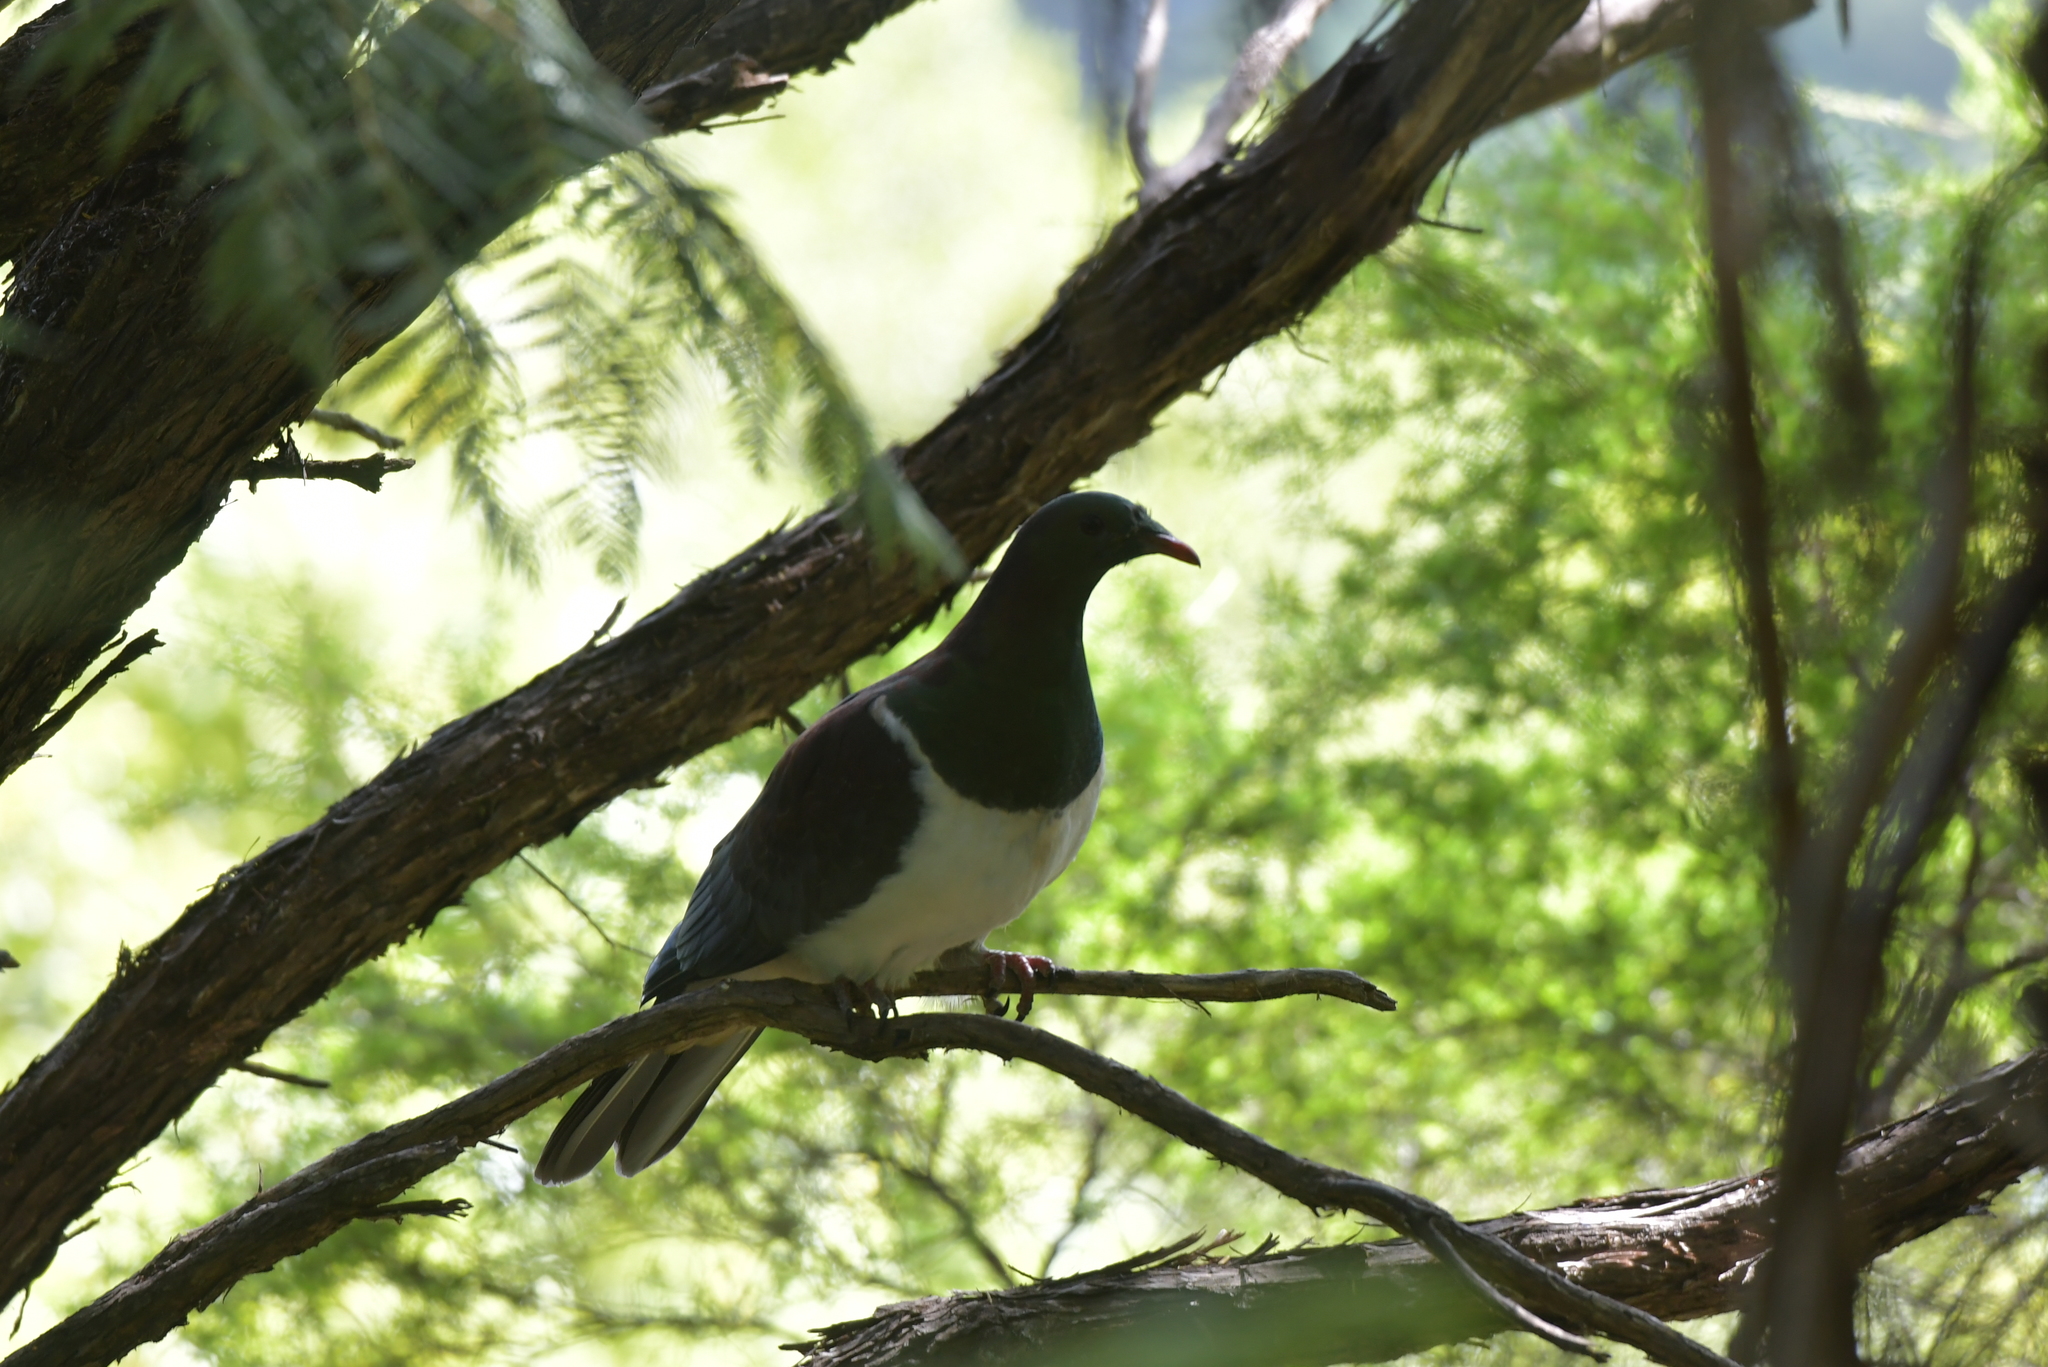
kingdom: Animalia
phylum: Chordata
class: Aves
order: Columbiformes
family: Columbidae
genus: Hemiphaga
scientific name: Hemiphaga novaeseelandiae
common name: New zealand pigeon
